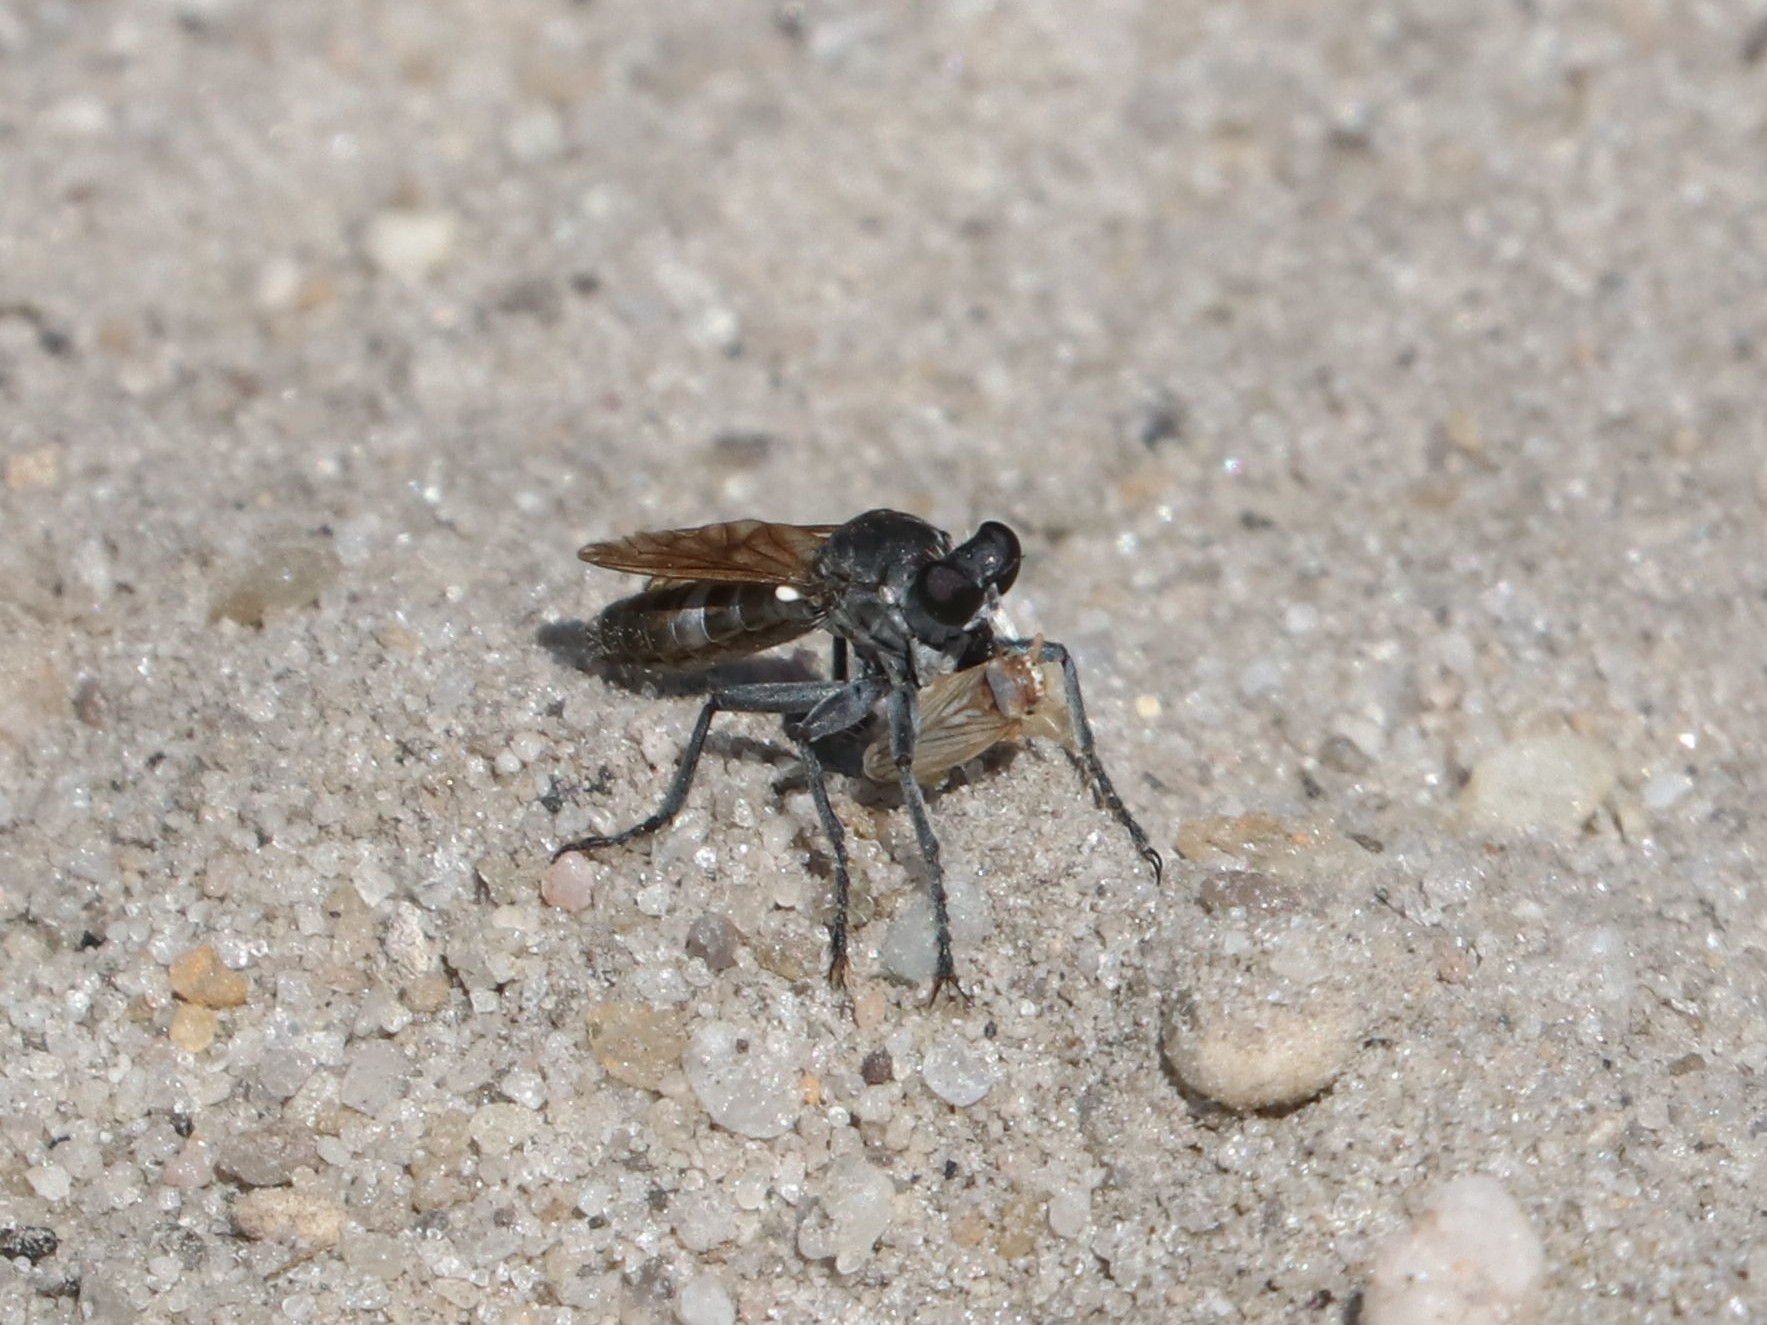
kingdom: Animalia
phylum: Arthropoda
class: Insecta
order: Diptera
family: Asilidae
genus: Stichopogon
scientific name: Stichopogon trifasciatus
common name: Three-banded robber fly
